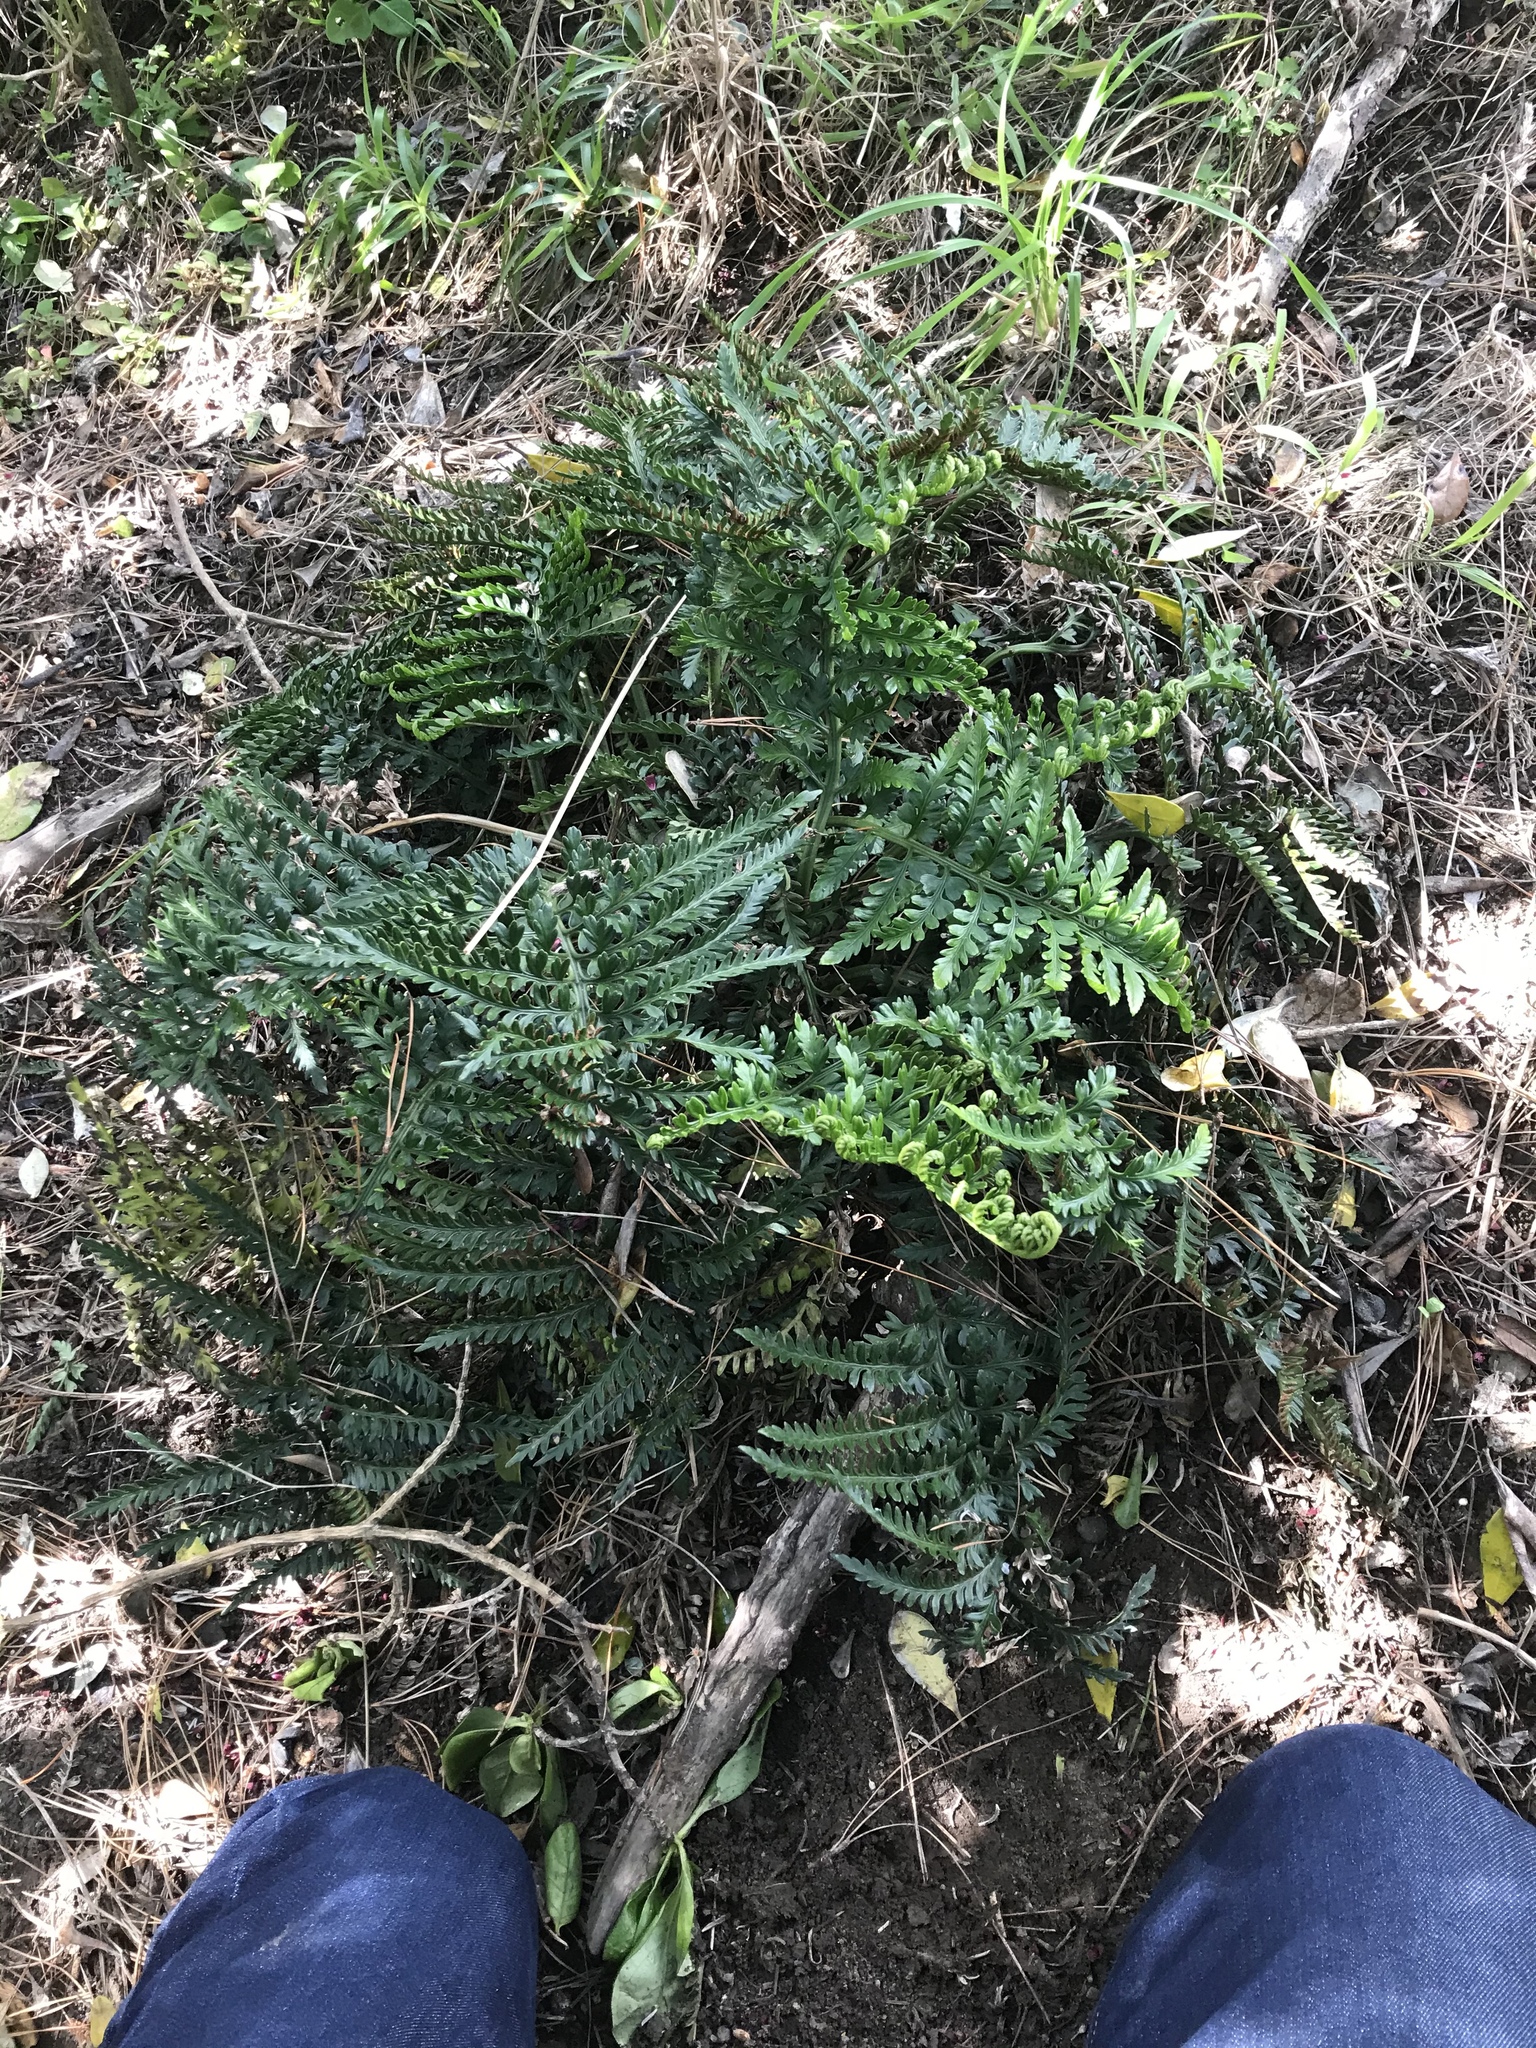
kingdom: Plantae
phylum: Tracheophyta
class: Polypodiopsida
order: Polypodiales
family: Aspleniaceae
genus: Asplenium
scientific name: Asplenium appendiculatum
